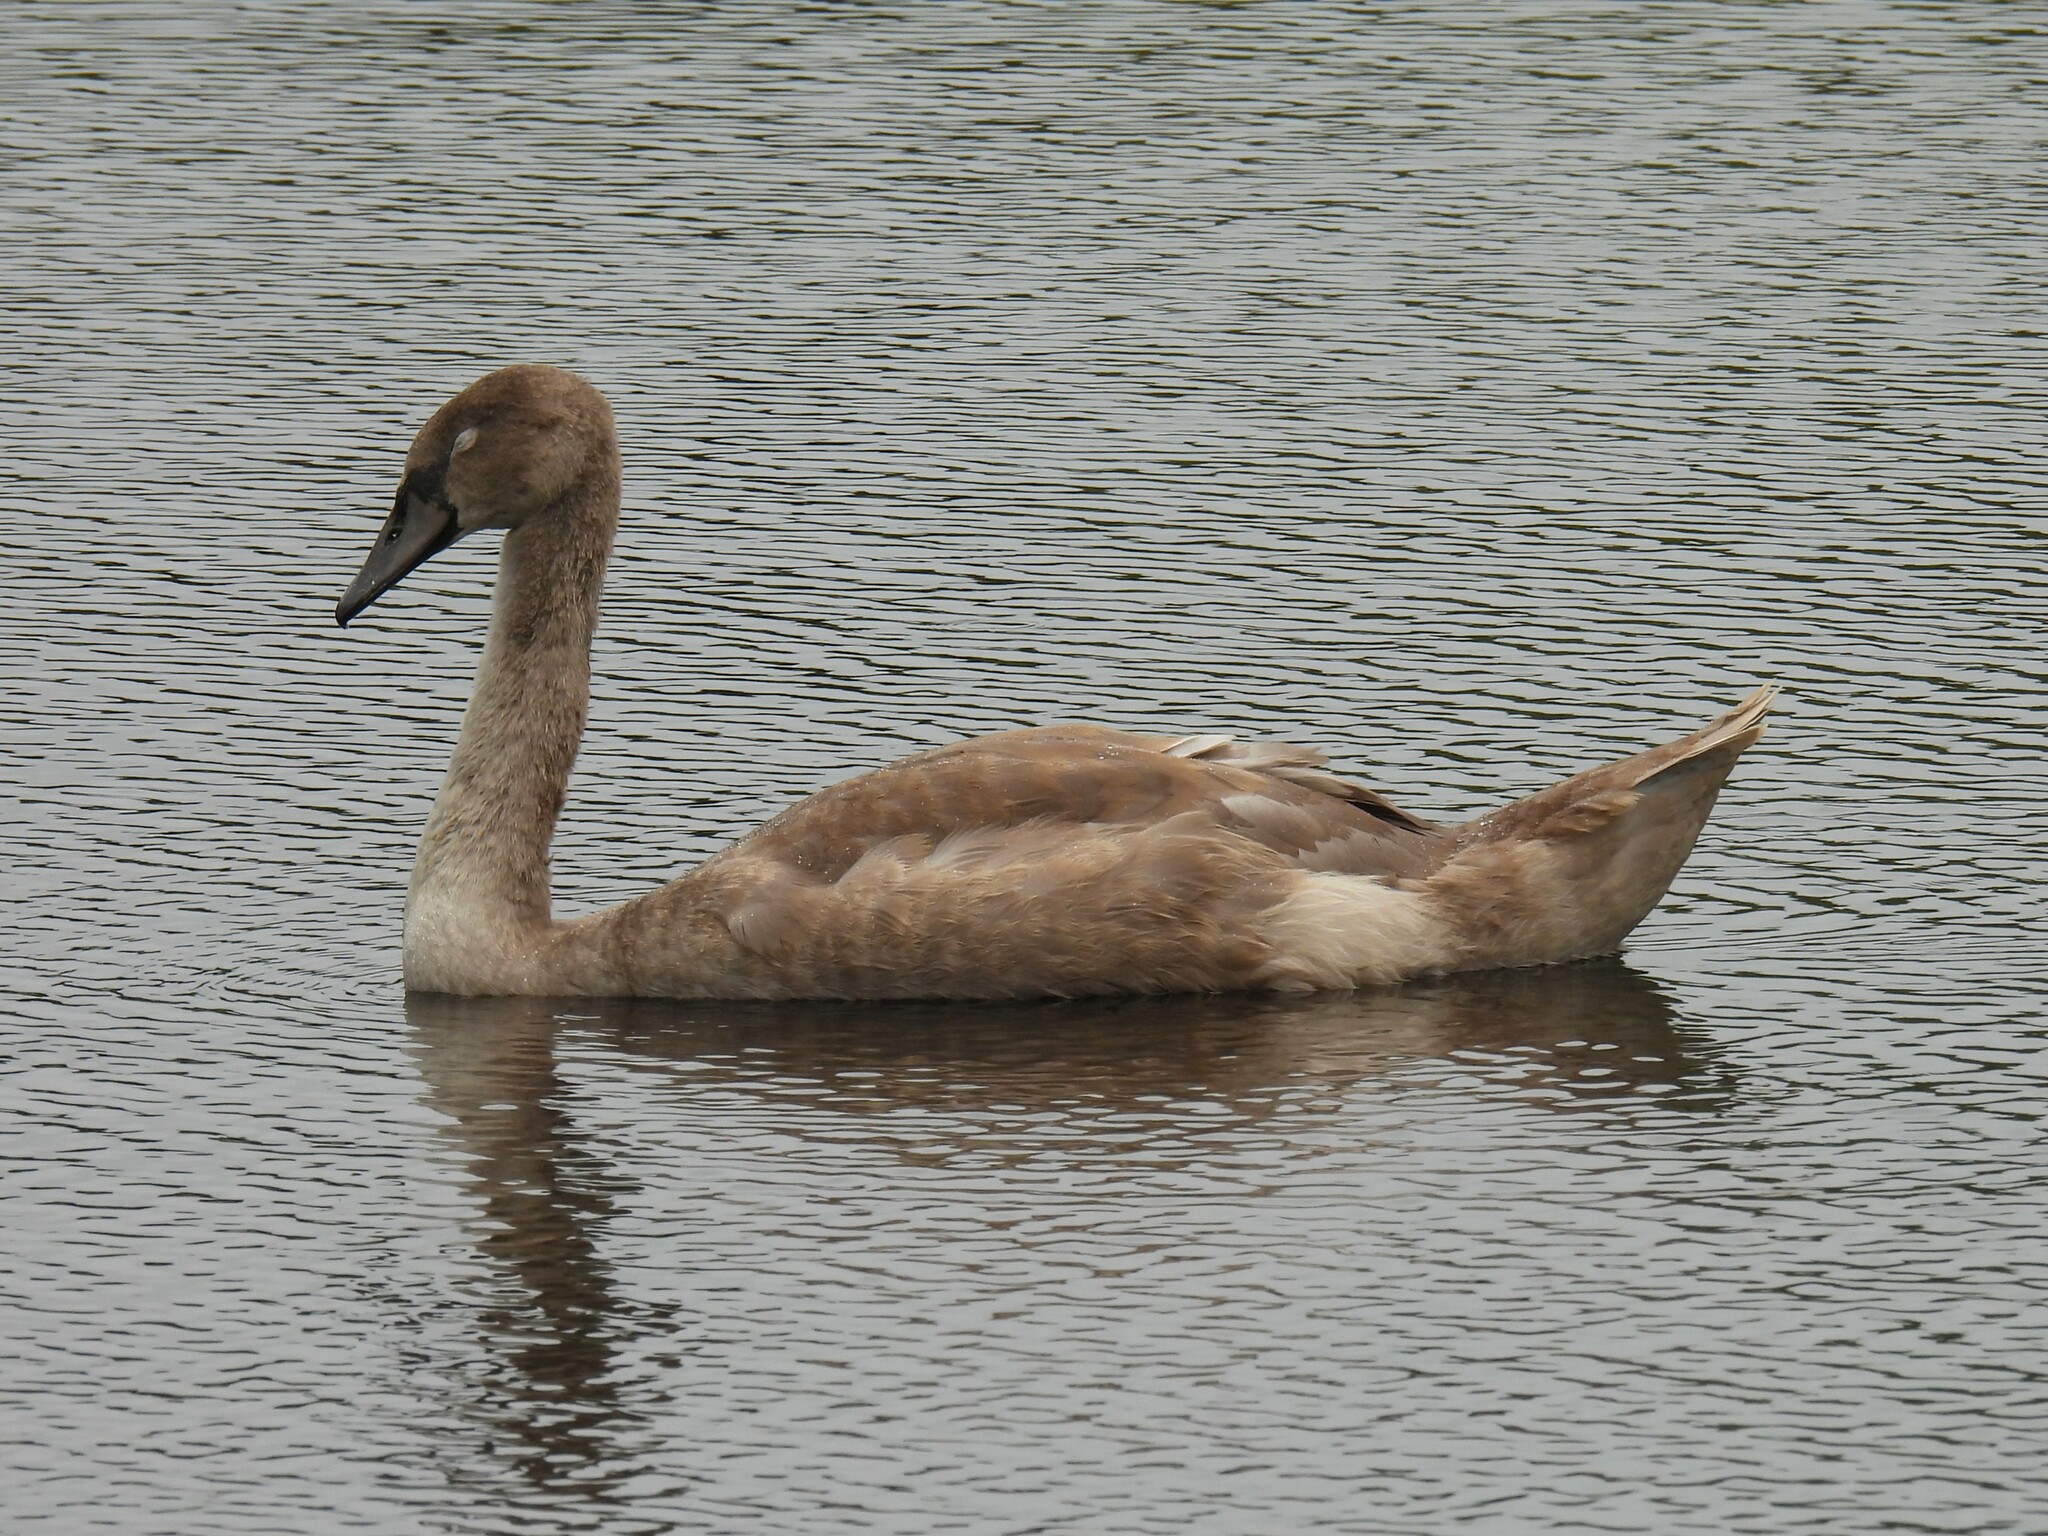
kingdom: Animalia
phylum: Chordata
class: Aves
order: Anseriformes
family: Anatidae
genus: Cygnus
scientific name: Cygnus olor
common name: Mute swan
